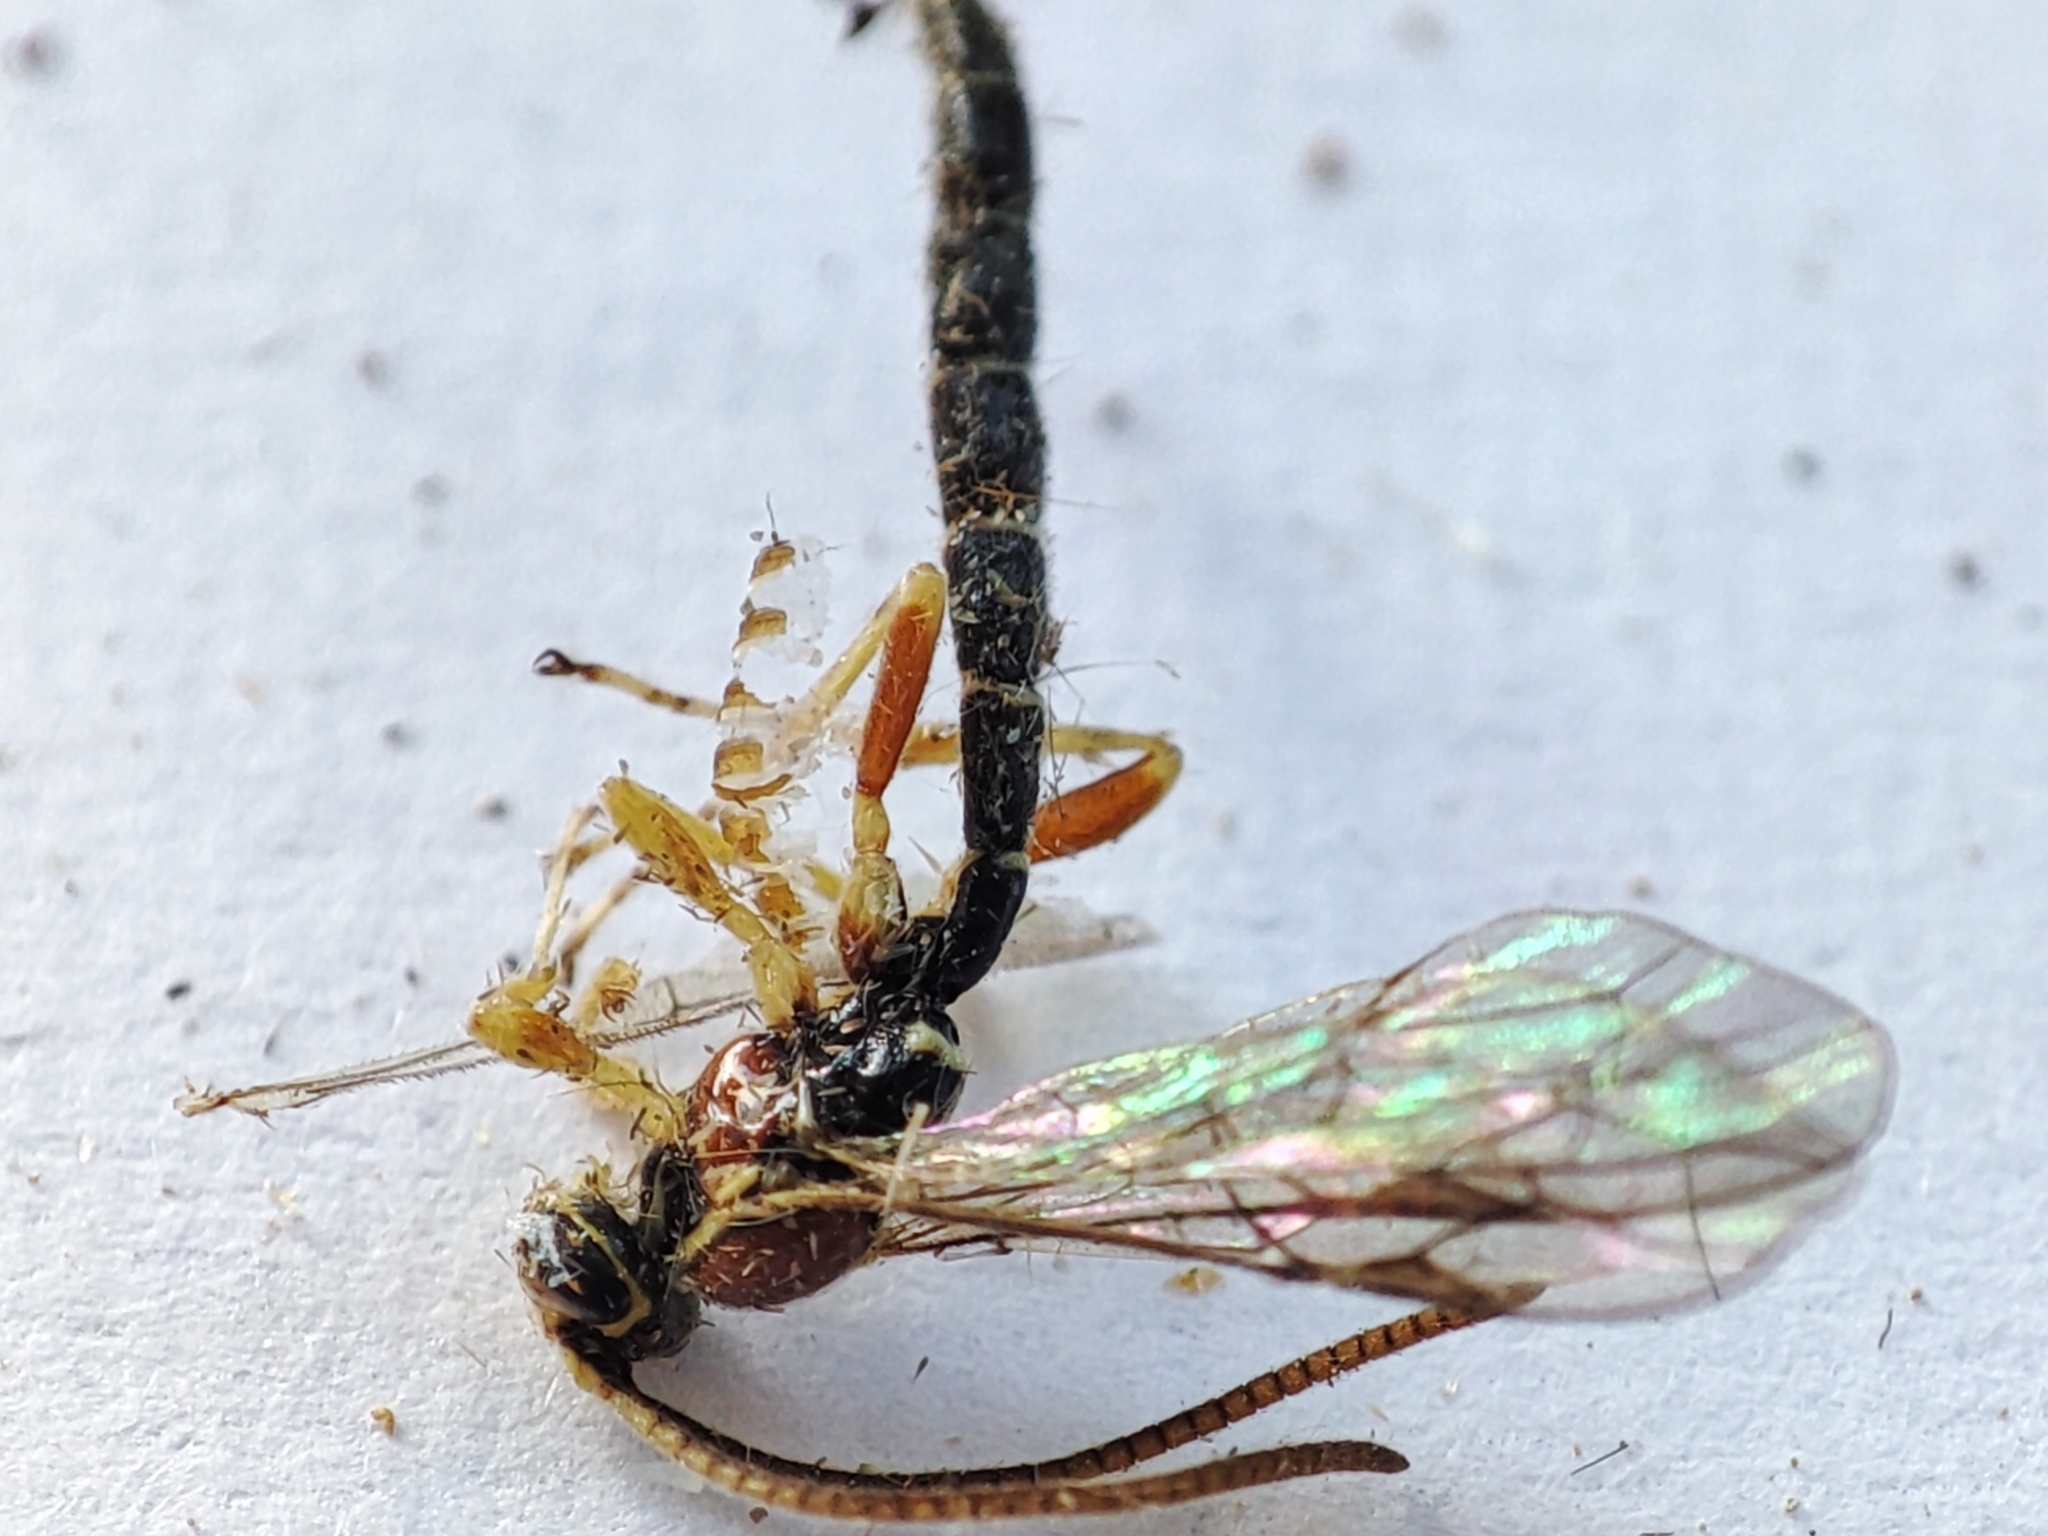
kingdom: Animalia
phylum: Arthropoda
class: Insecta
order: Hymenoptera
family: Ichneumonidae
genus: Perithous
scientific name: Perithous septemcinctorius
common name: Ichneumonid wasp
